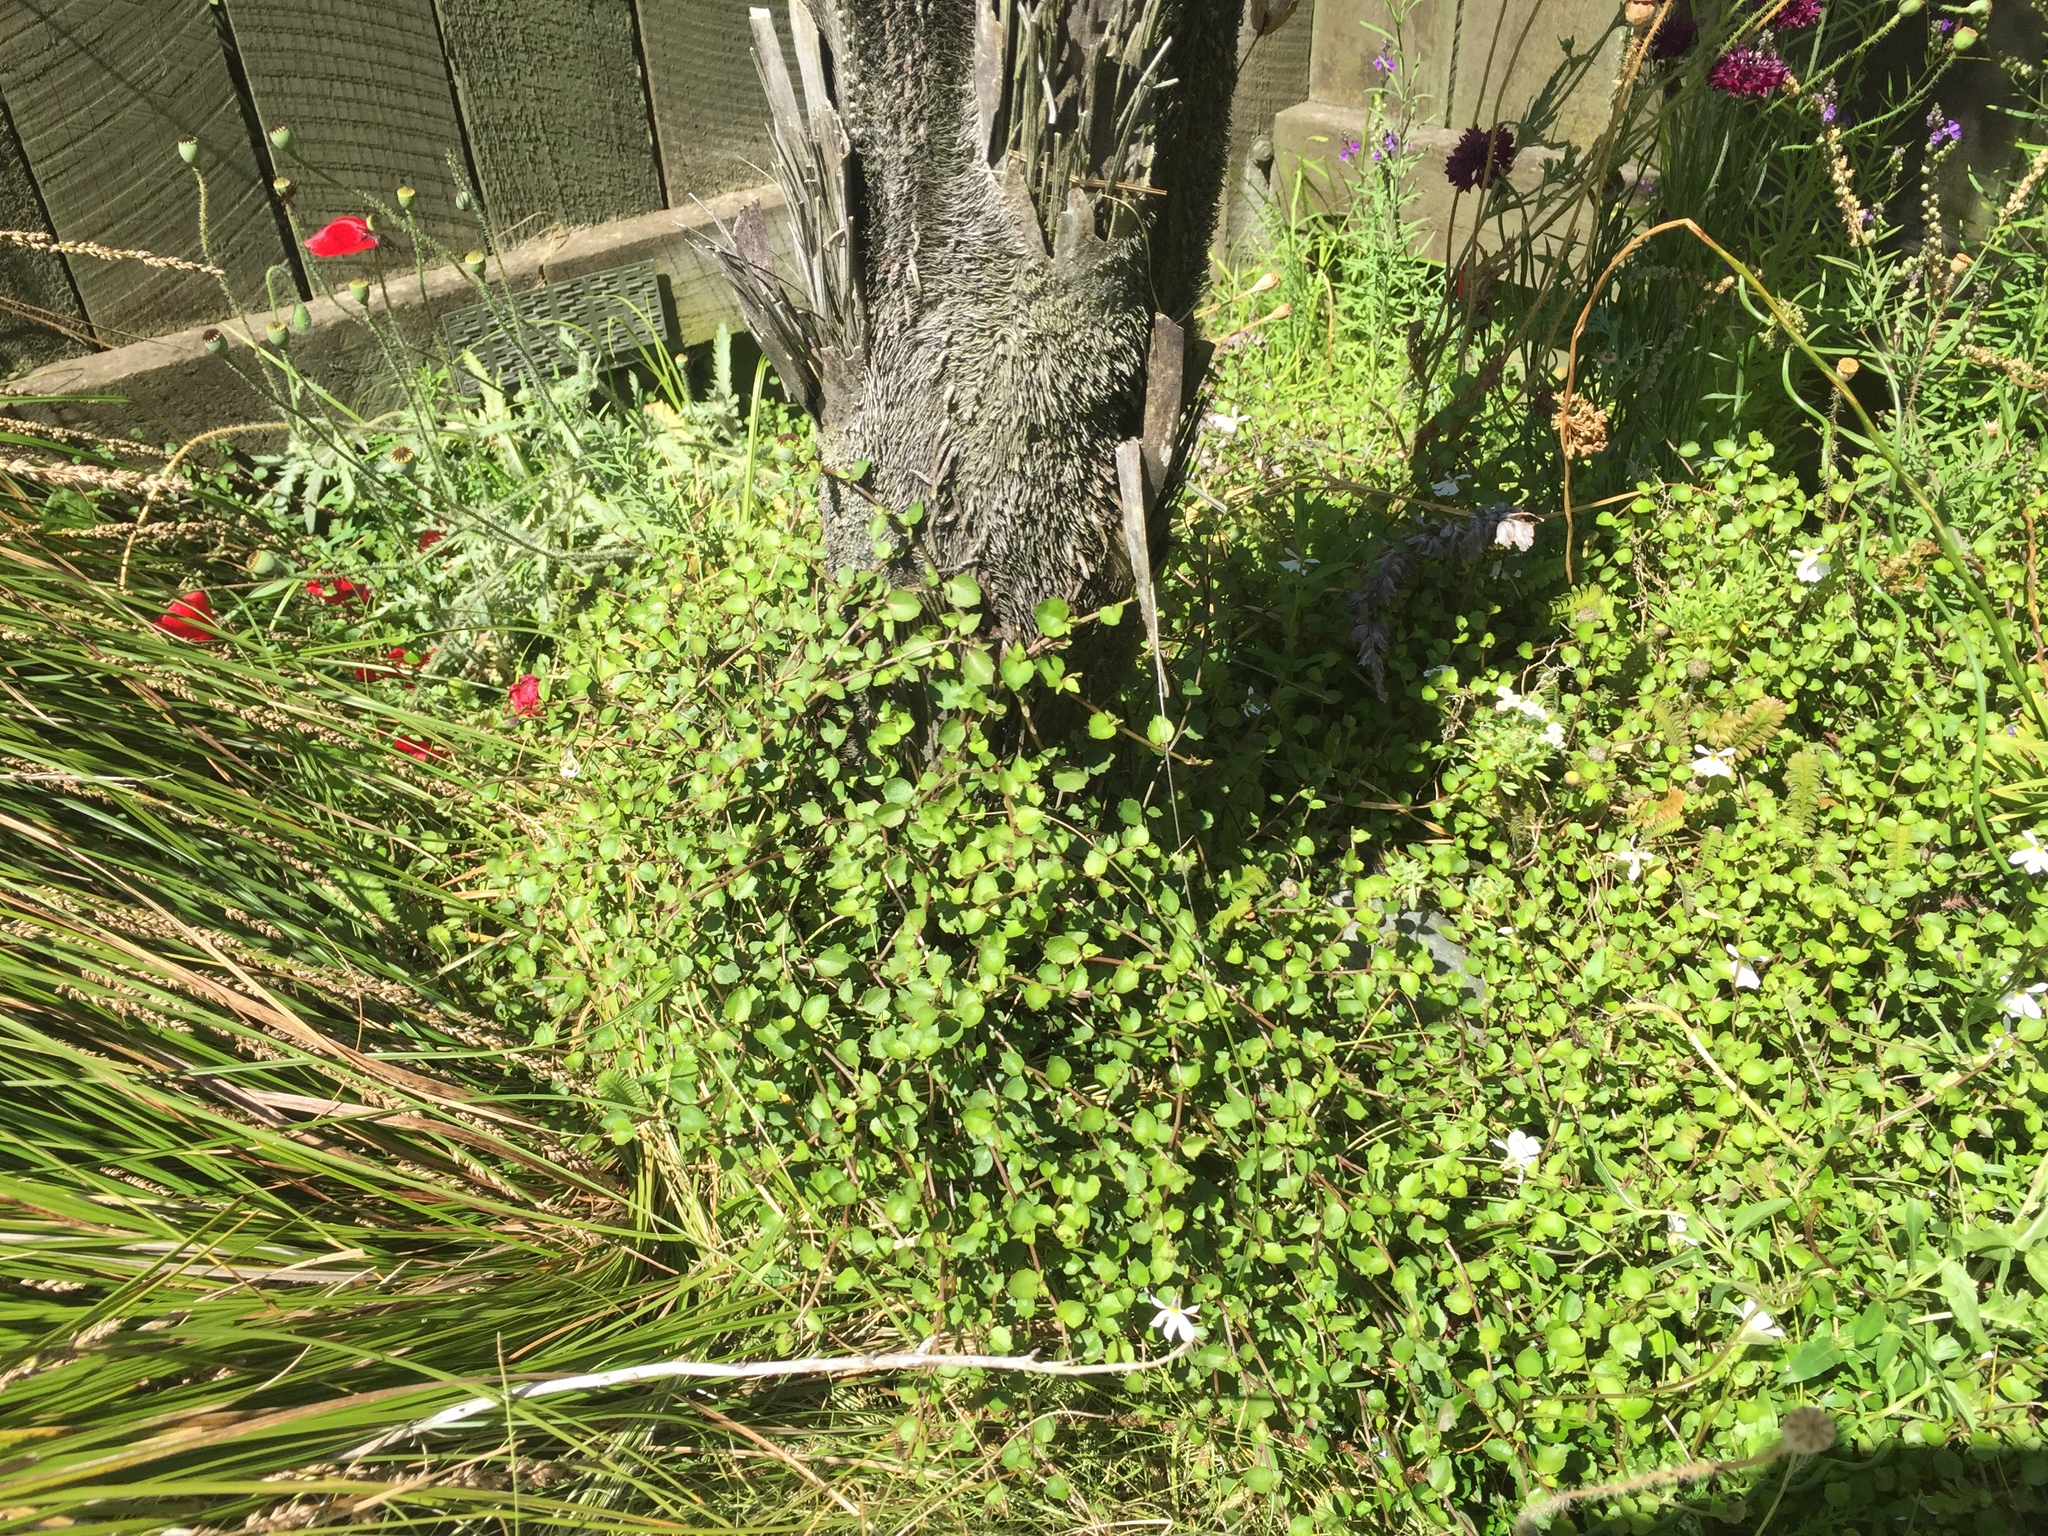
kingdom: Plantae
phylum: Tracheophyta
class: Magnoliopsida
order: Asterales
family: Campanulaceae
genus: Lobelia
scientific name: Lobelia angulata
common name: Lawn lobelia
